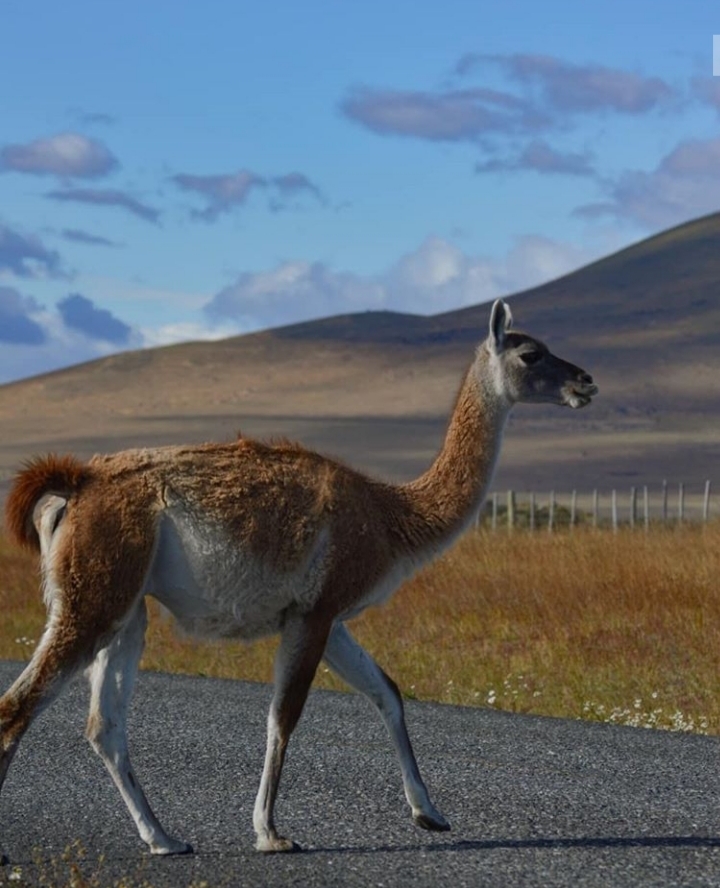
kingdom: Animalia
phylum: Chordata
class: Mammalia
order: Artiodactyla
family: Camelidae
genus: Lama
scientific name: Lama glama
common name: Llama
